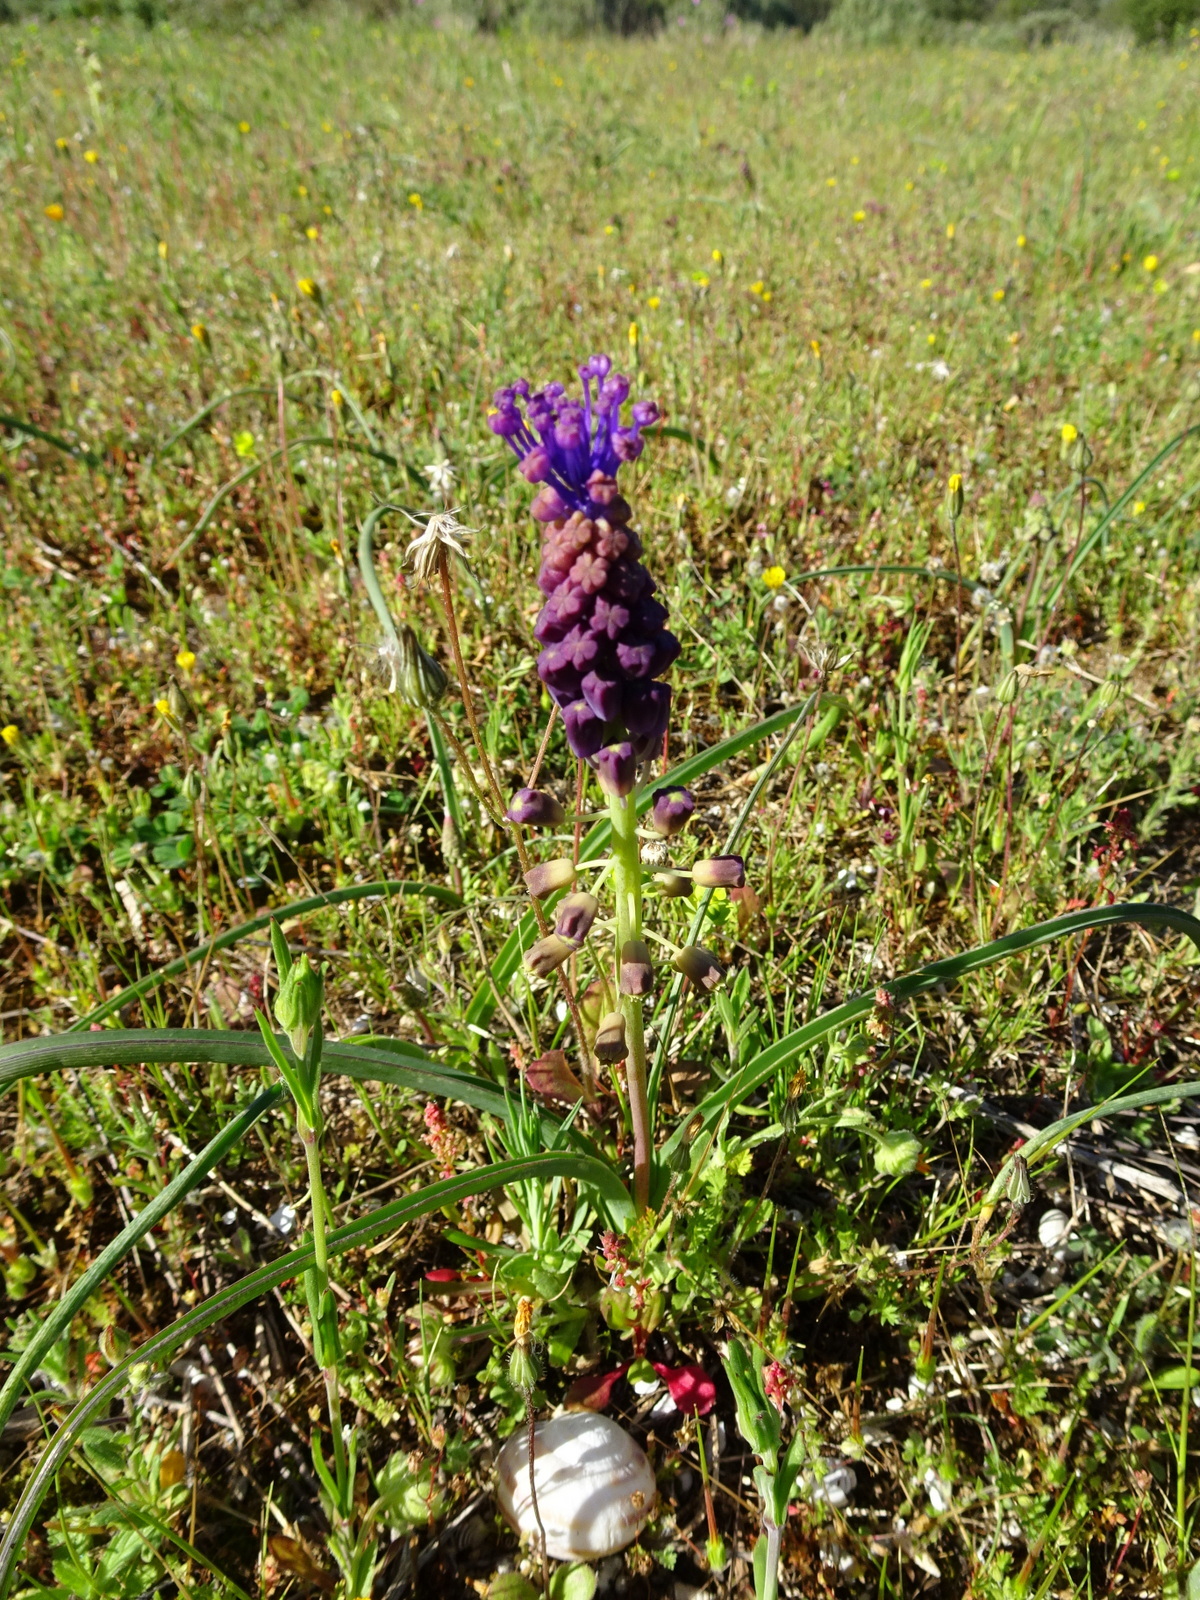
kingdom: Plantae
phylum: Tracheophyta
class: Liliopsida
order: Asparagales
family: Asparagaceae
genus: Muscari
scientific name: Muscari comosum
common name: Tassel hyacinth
